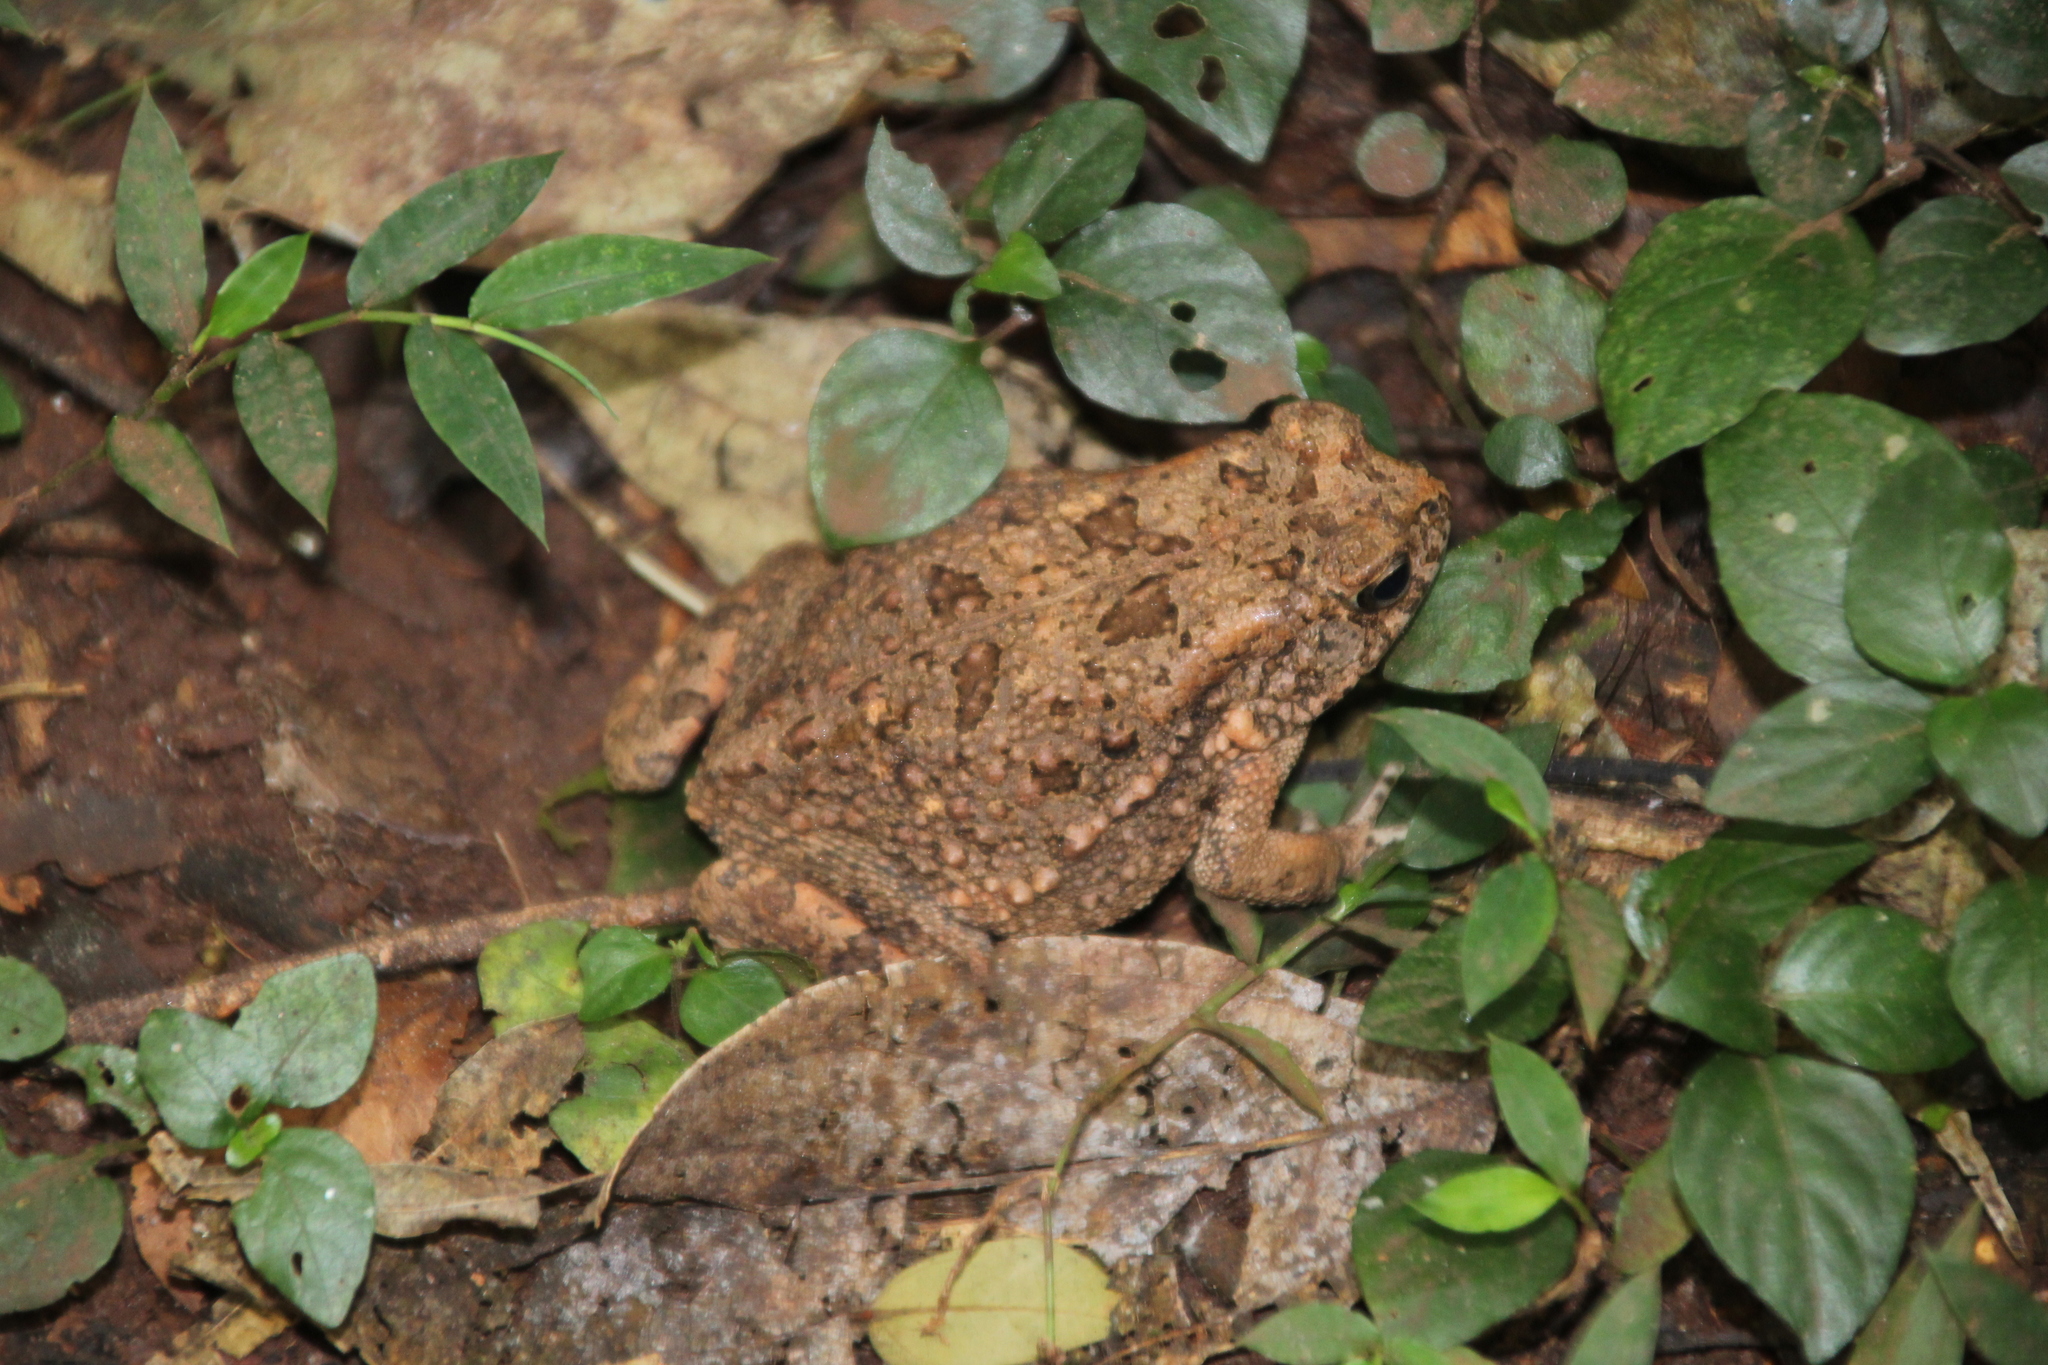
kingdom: Animalia
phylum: Chordata
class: Amphibia
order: Anura
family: Bufonidae
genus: Sclerophrys
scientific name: Sclerophrys gutturalis
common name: African common toad
